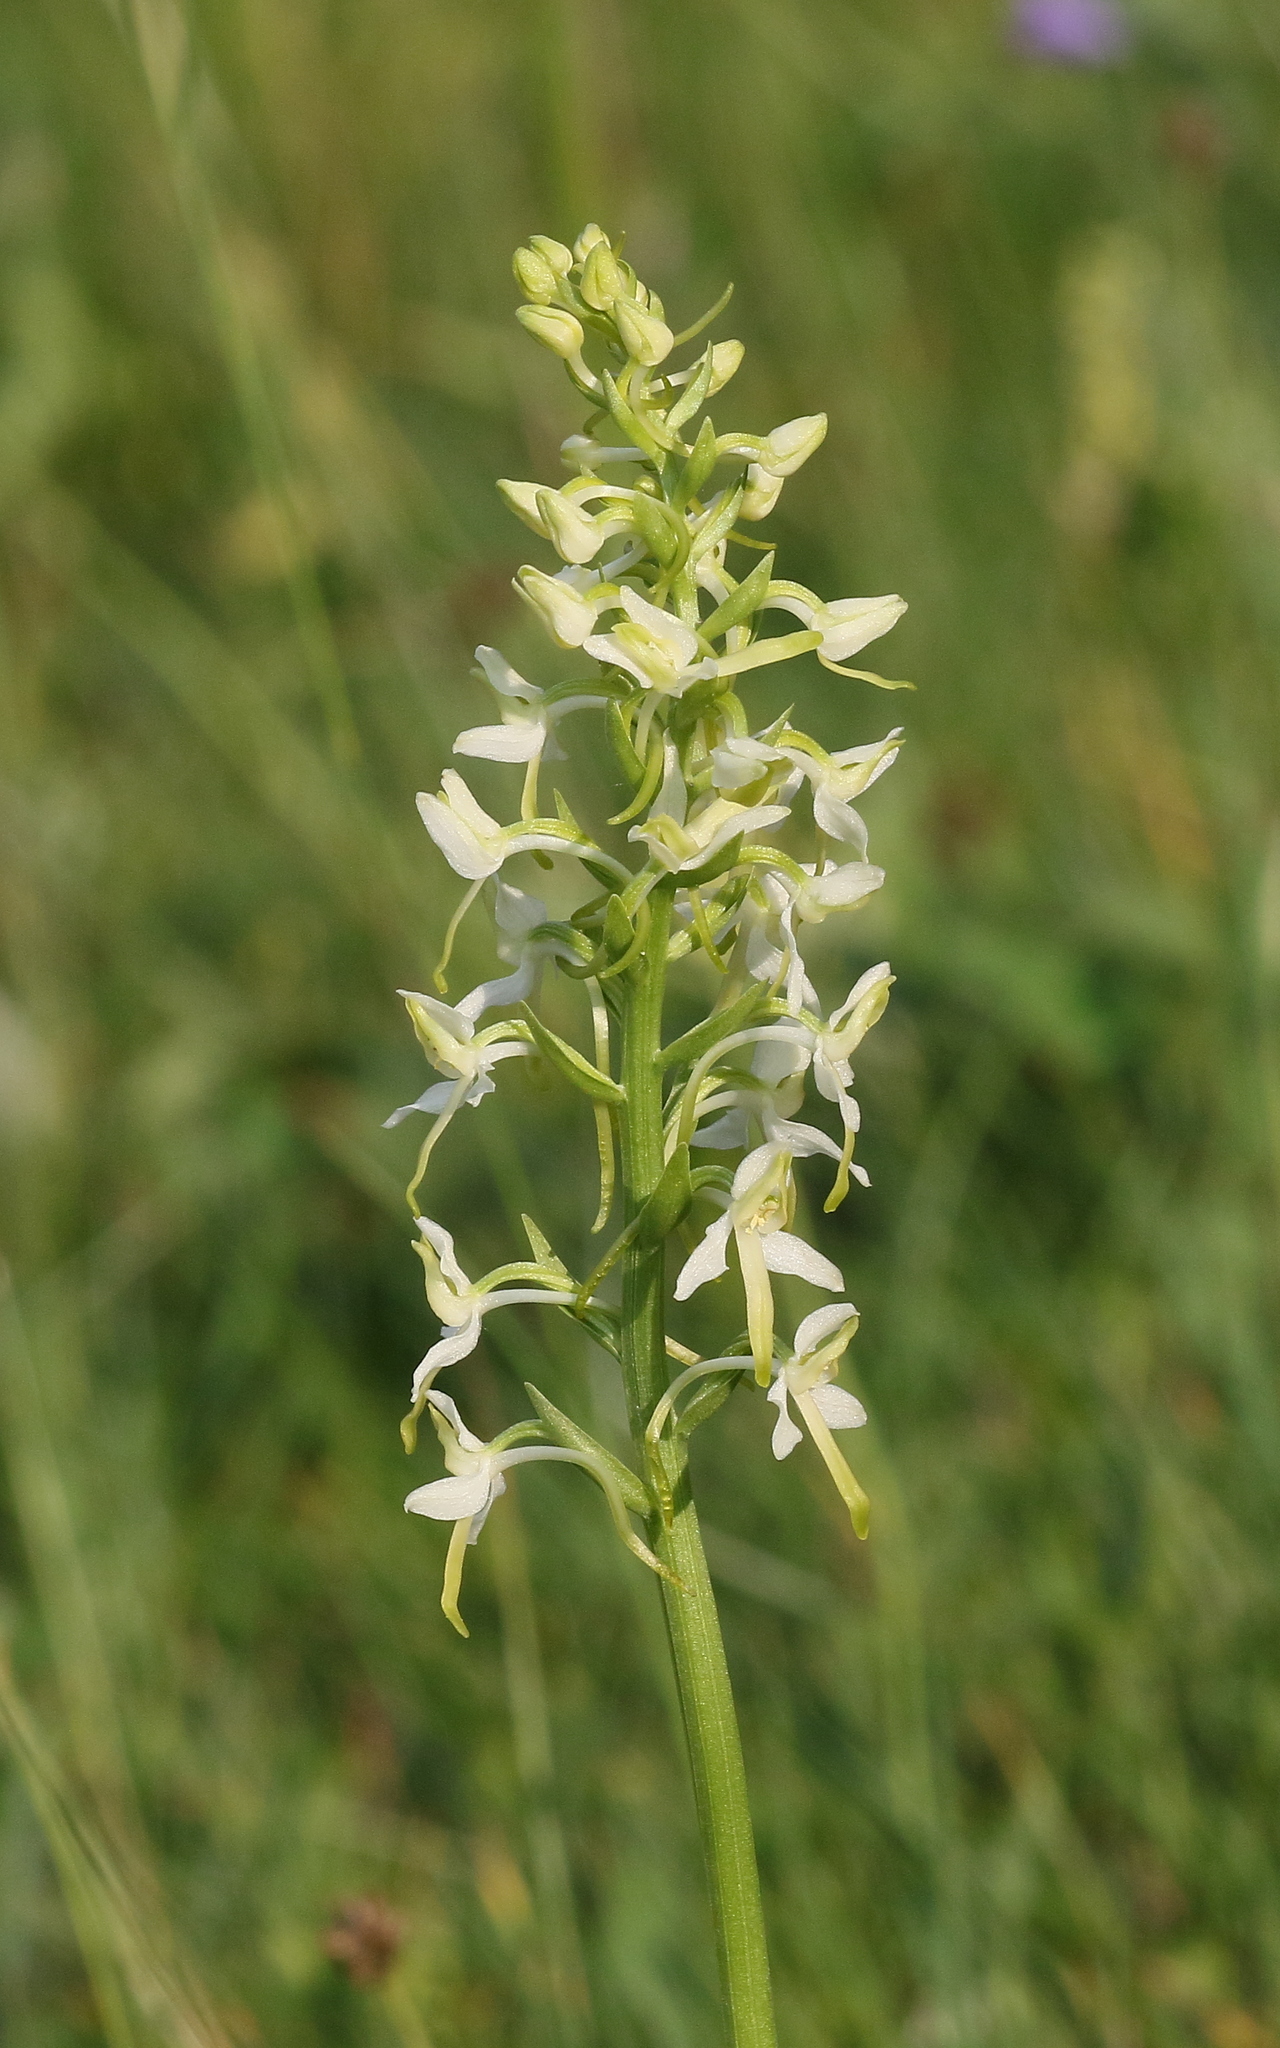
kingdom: Plantae
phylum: Tracheophyta
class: Liliopsida
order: Asparagales
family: Orchidaceae
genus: Platanthera
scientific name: Platanthera bifolia
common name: Lesser butterfly-orchid
